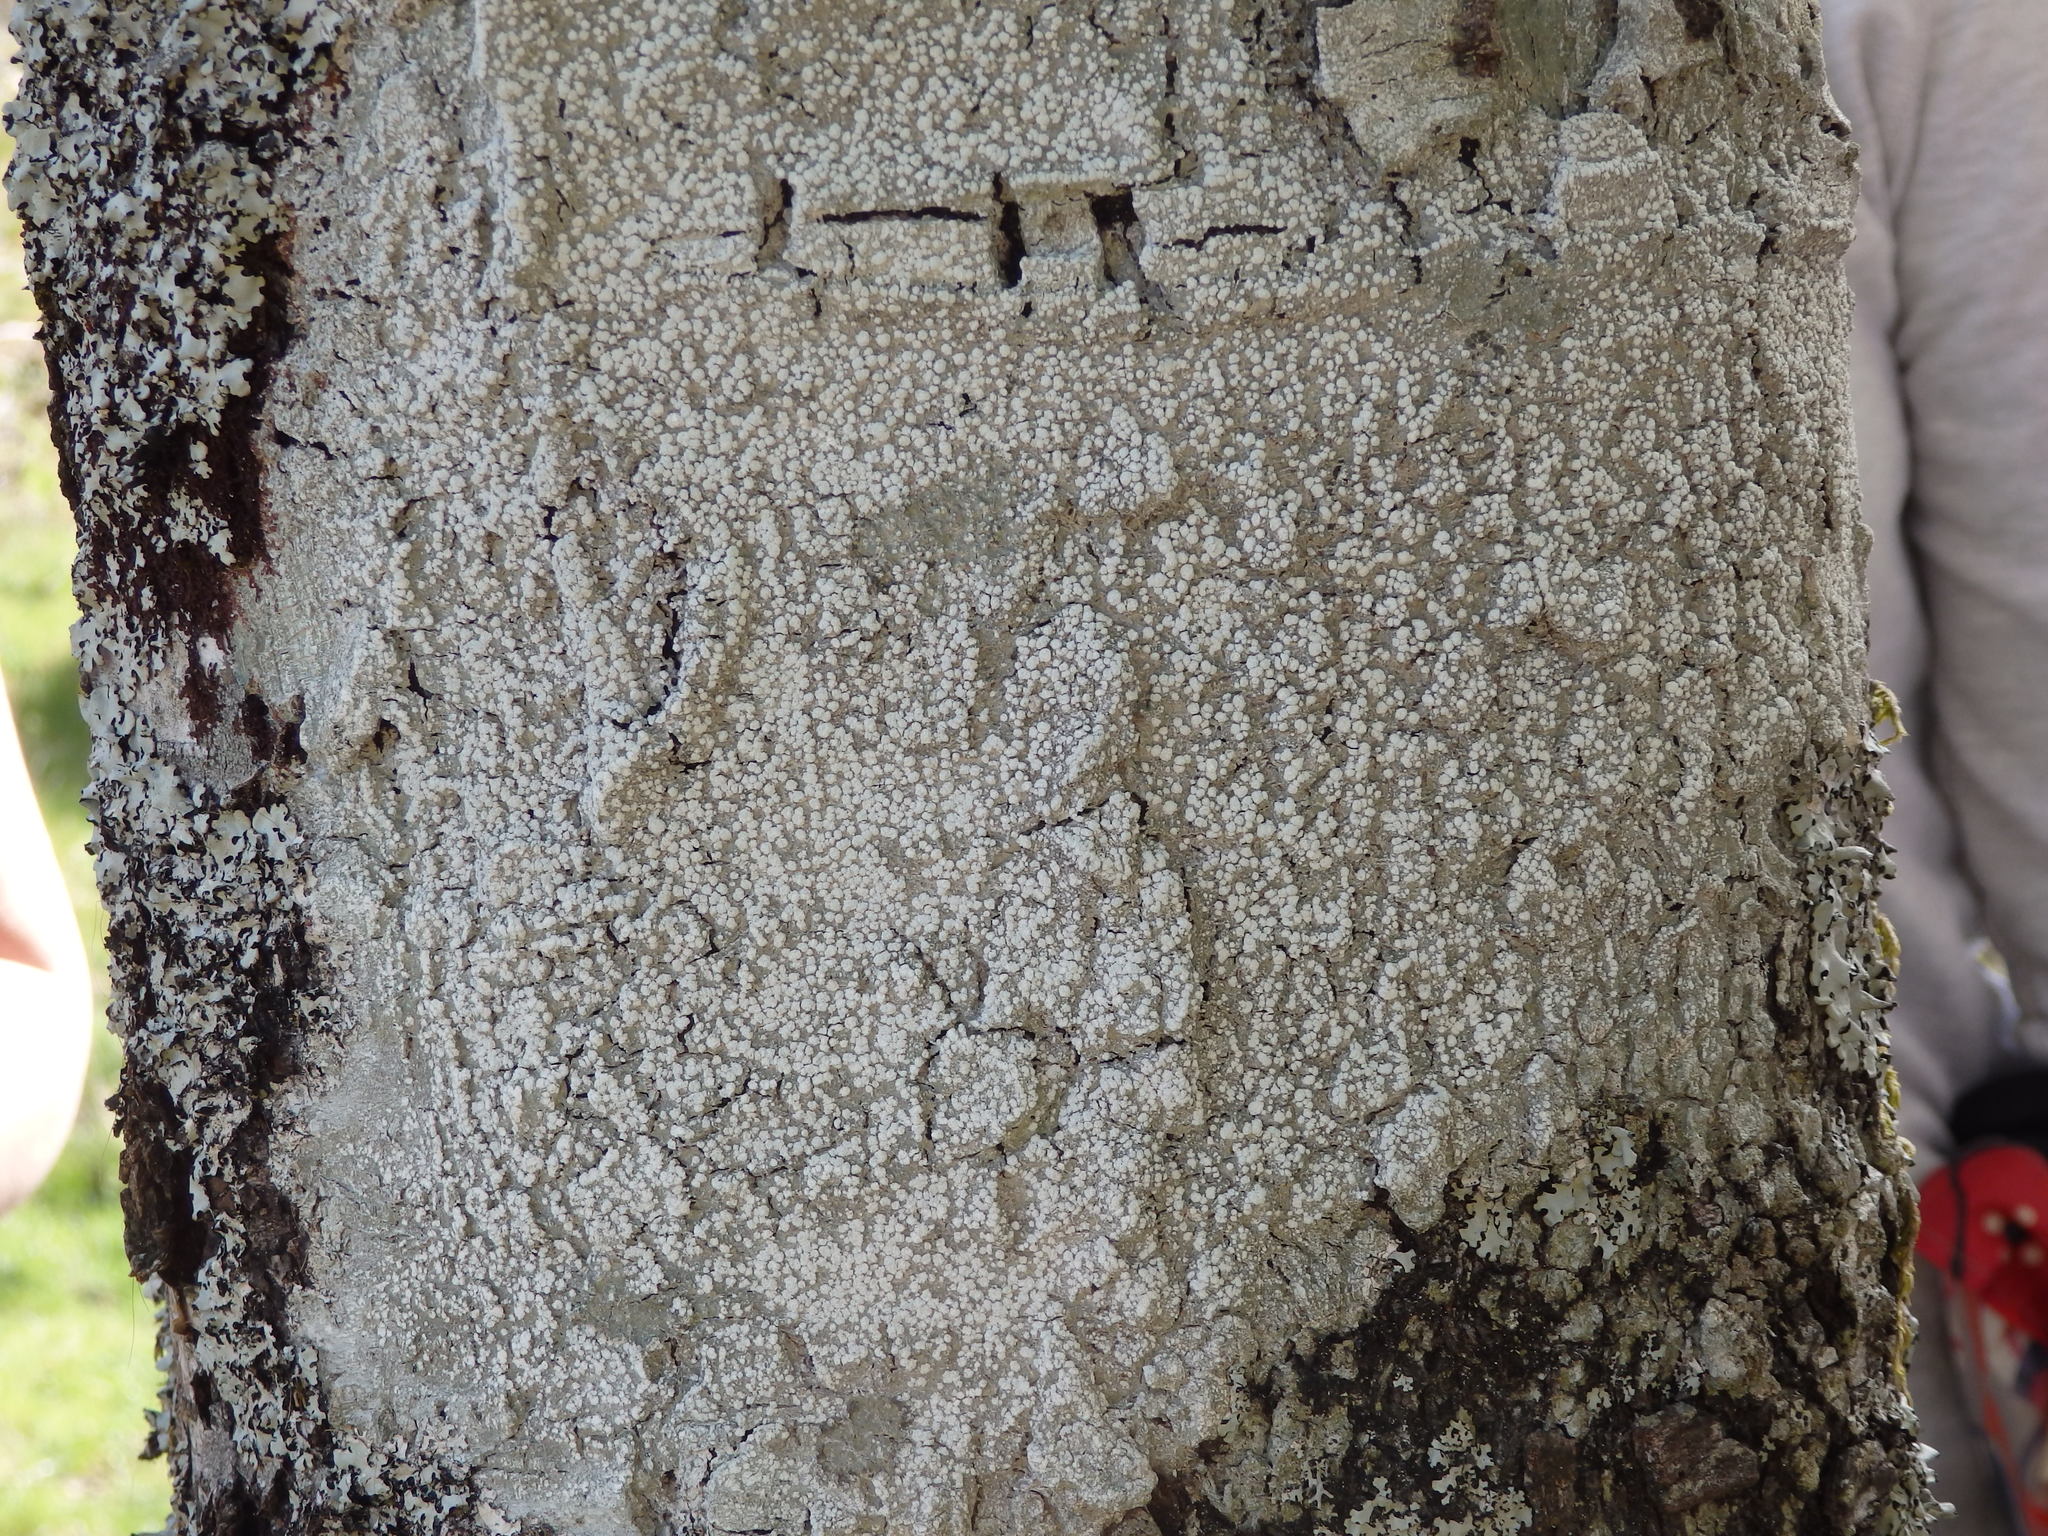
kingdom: Fungi
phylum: Ascomycota
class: Lecanoromycetes
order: Pertusariales
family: Pertusariaceae
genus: Lepra
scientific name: Lepra amara
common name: Bitter wart lichen
